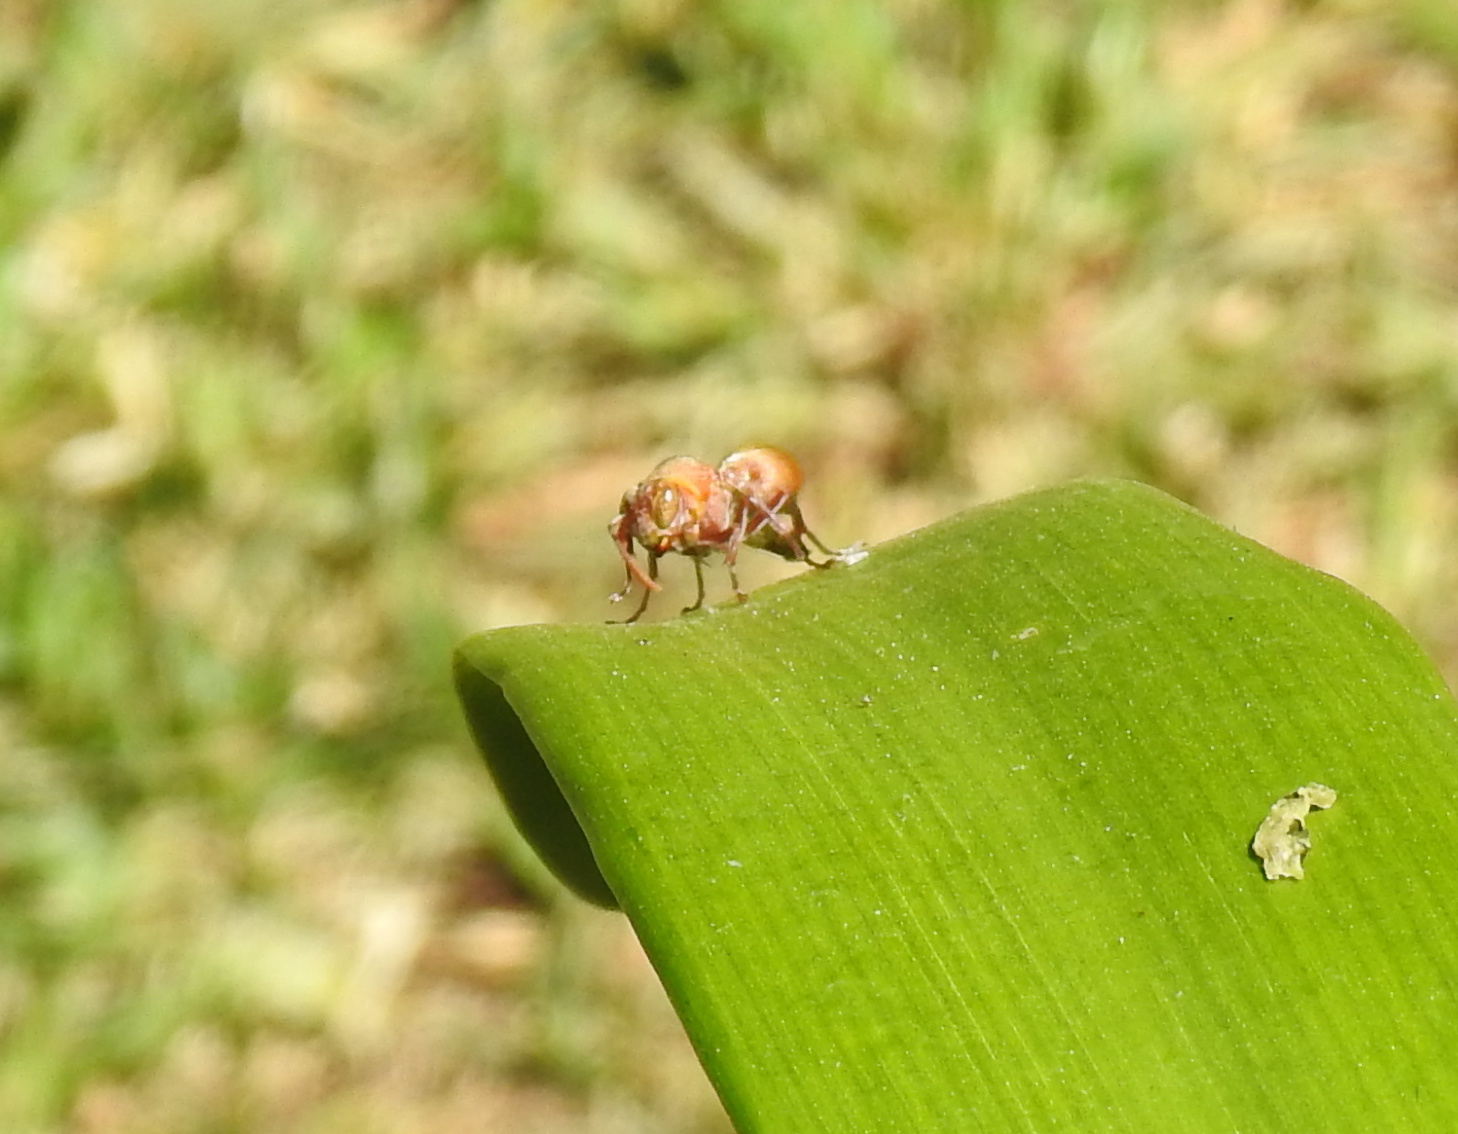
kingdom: Animalia
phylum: Arthropoda
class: Insecta
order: Hymenoptera
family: Vespidae
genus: Ropalidia
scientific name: Ropalidia distigma
